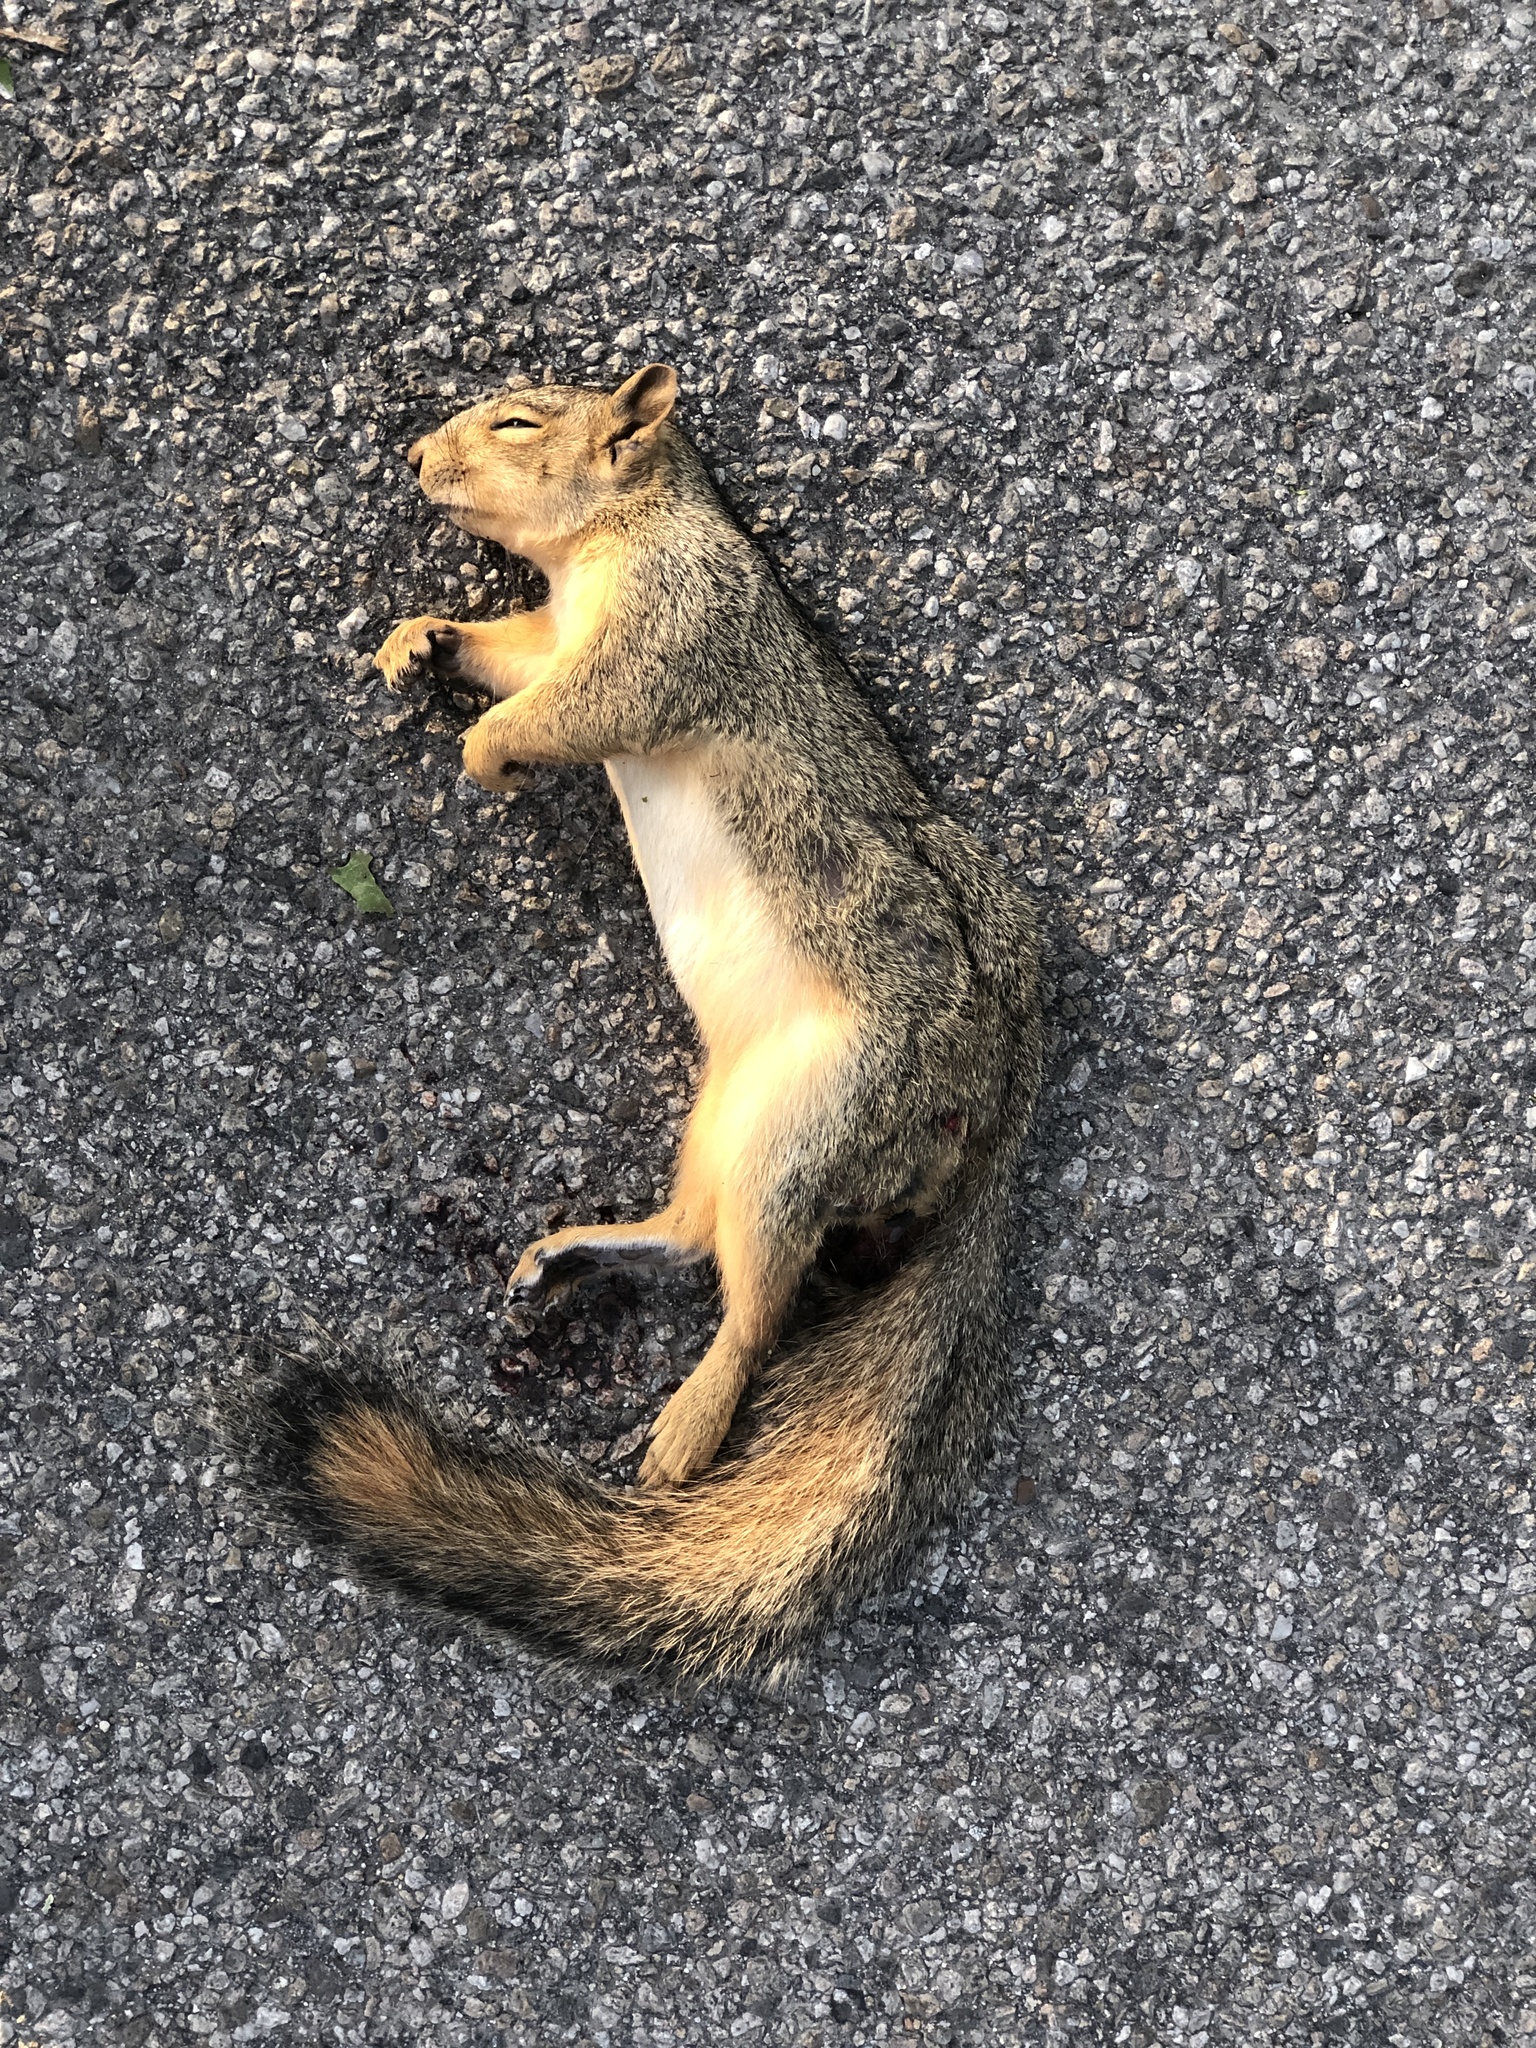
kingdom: Animalia
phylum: Chordata
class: Mammalia
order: Rodentia
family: Sciuridae
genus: Sciurus
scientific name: Sciurus niger
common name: Fox squirrel
